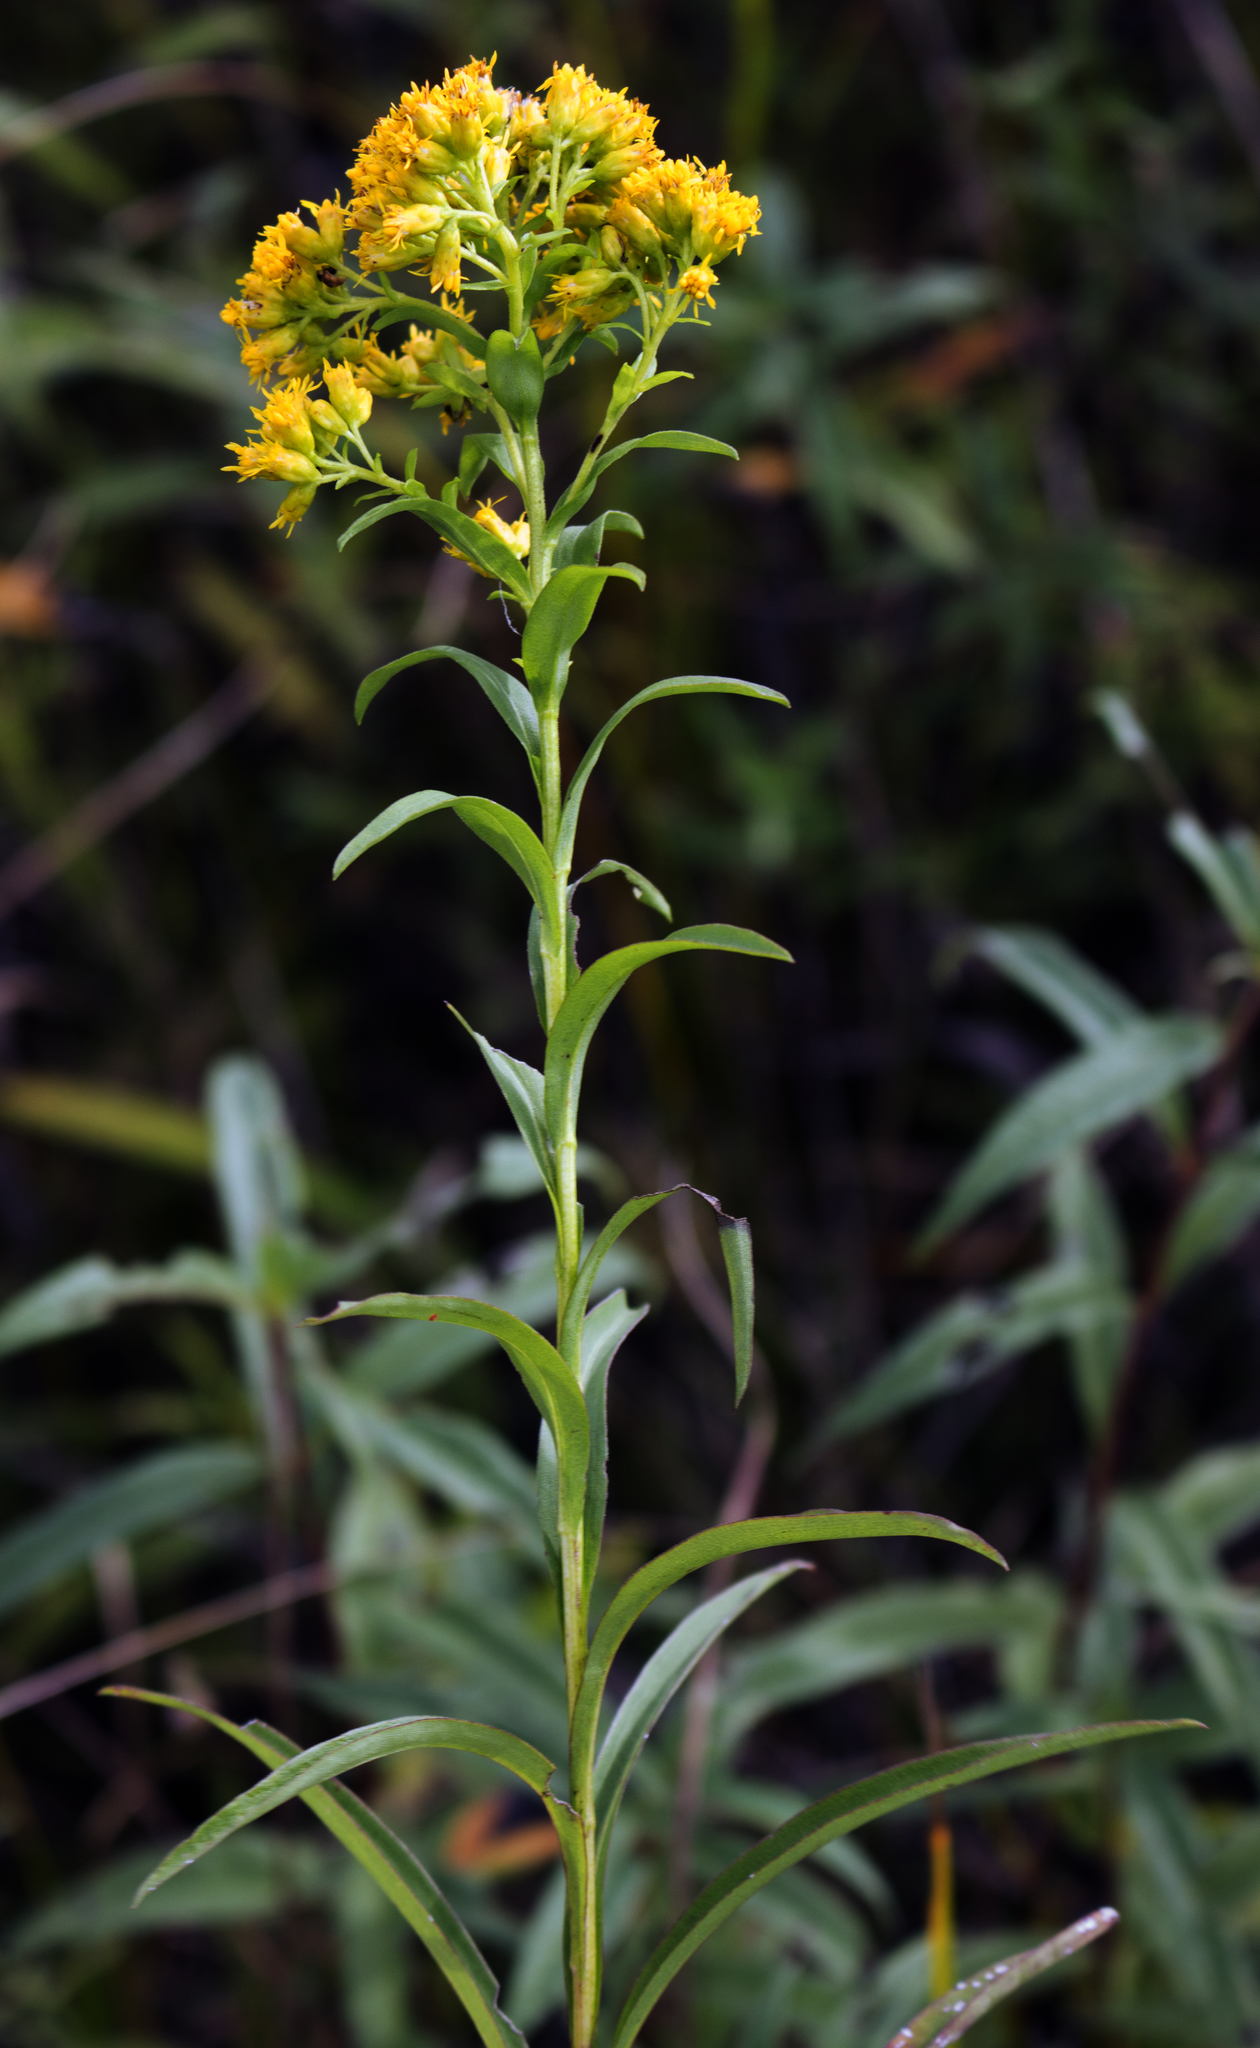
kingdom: Plantae
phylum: Tracheophyta
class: Magnoliopsida
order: Asterales
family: Asteraceae
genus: Solidago
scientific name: Solidago riddellii
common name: Riddell's goldenrod
